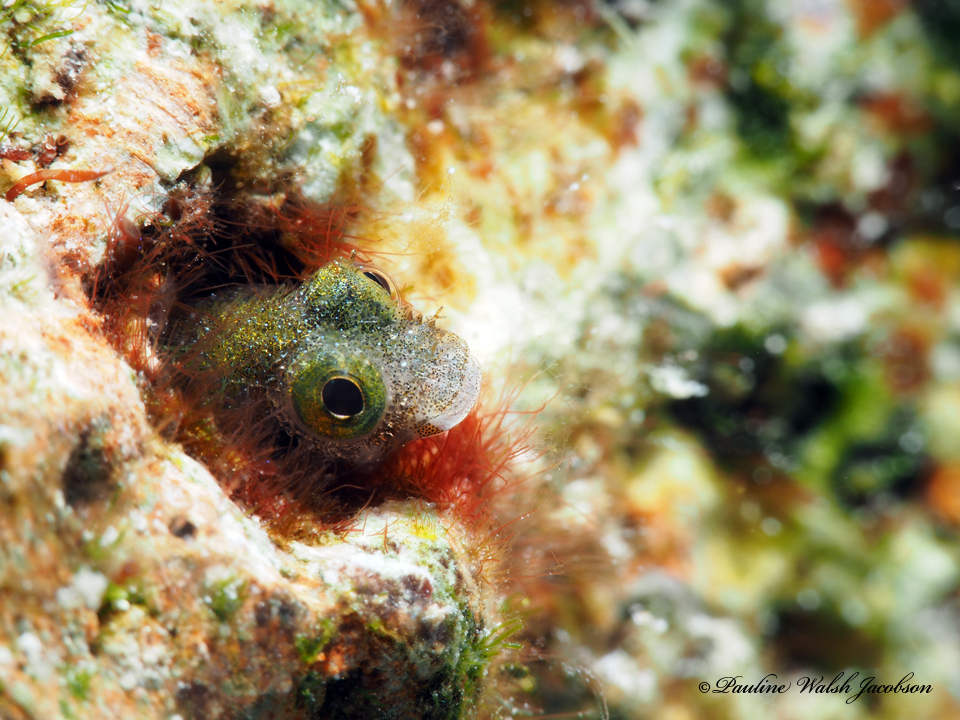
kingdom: Animalia
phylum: Chordata
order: Perciformes
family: Chaenopsidae
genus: Acanthemblemaria
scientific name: Acanthemblemaria spinosa
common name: Spinyhead blenny
